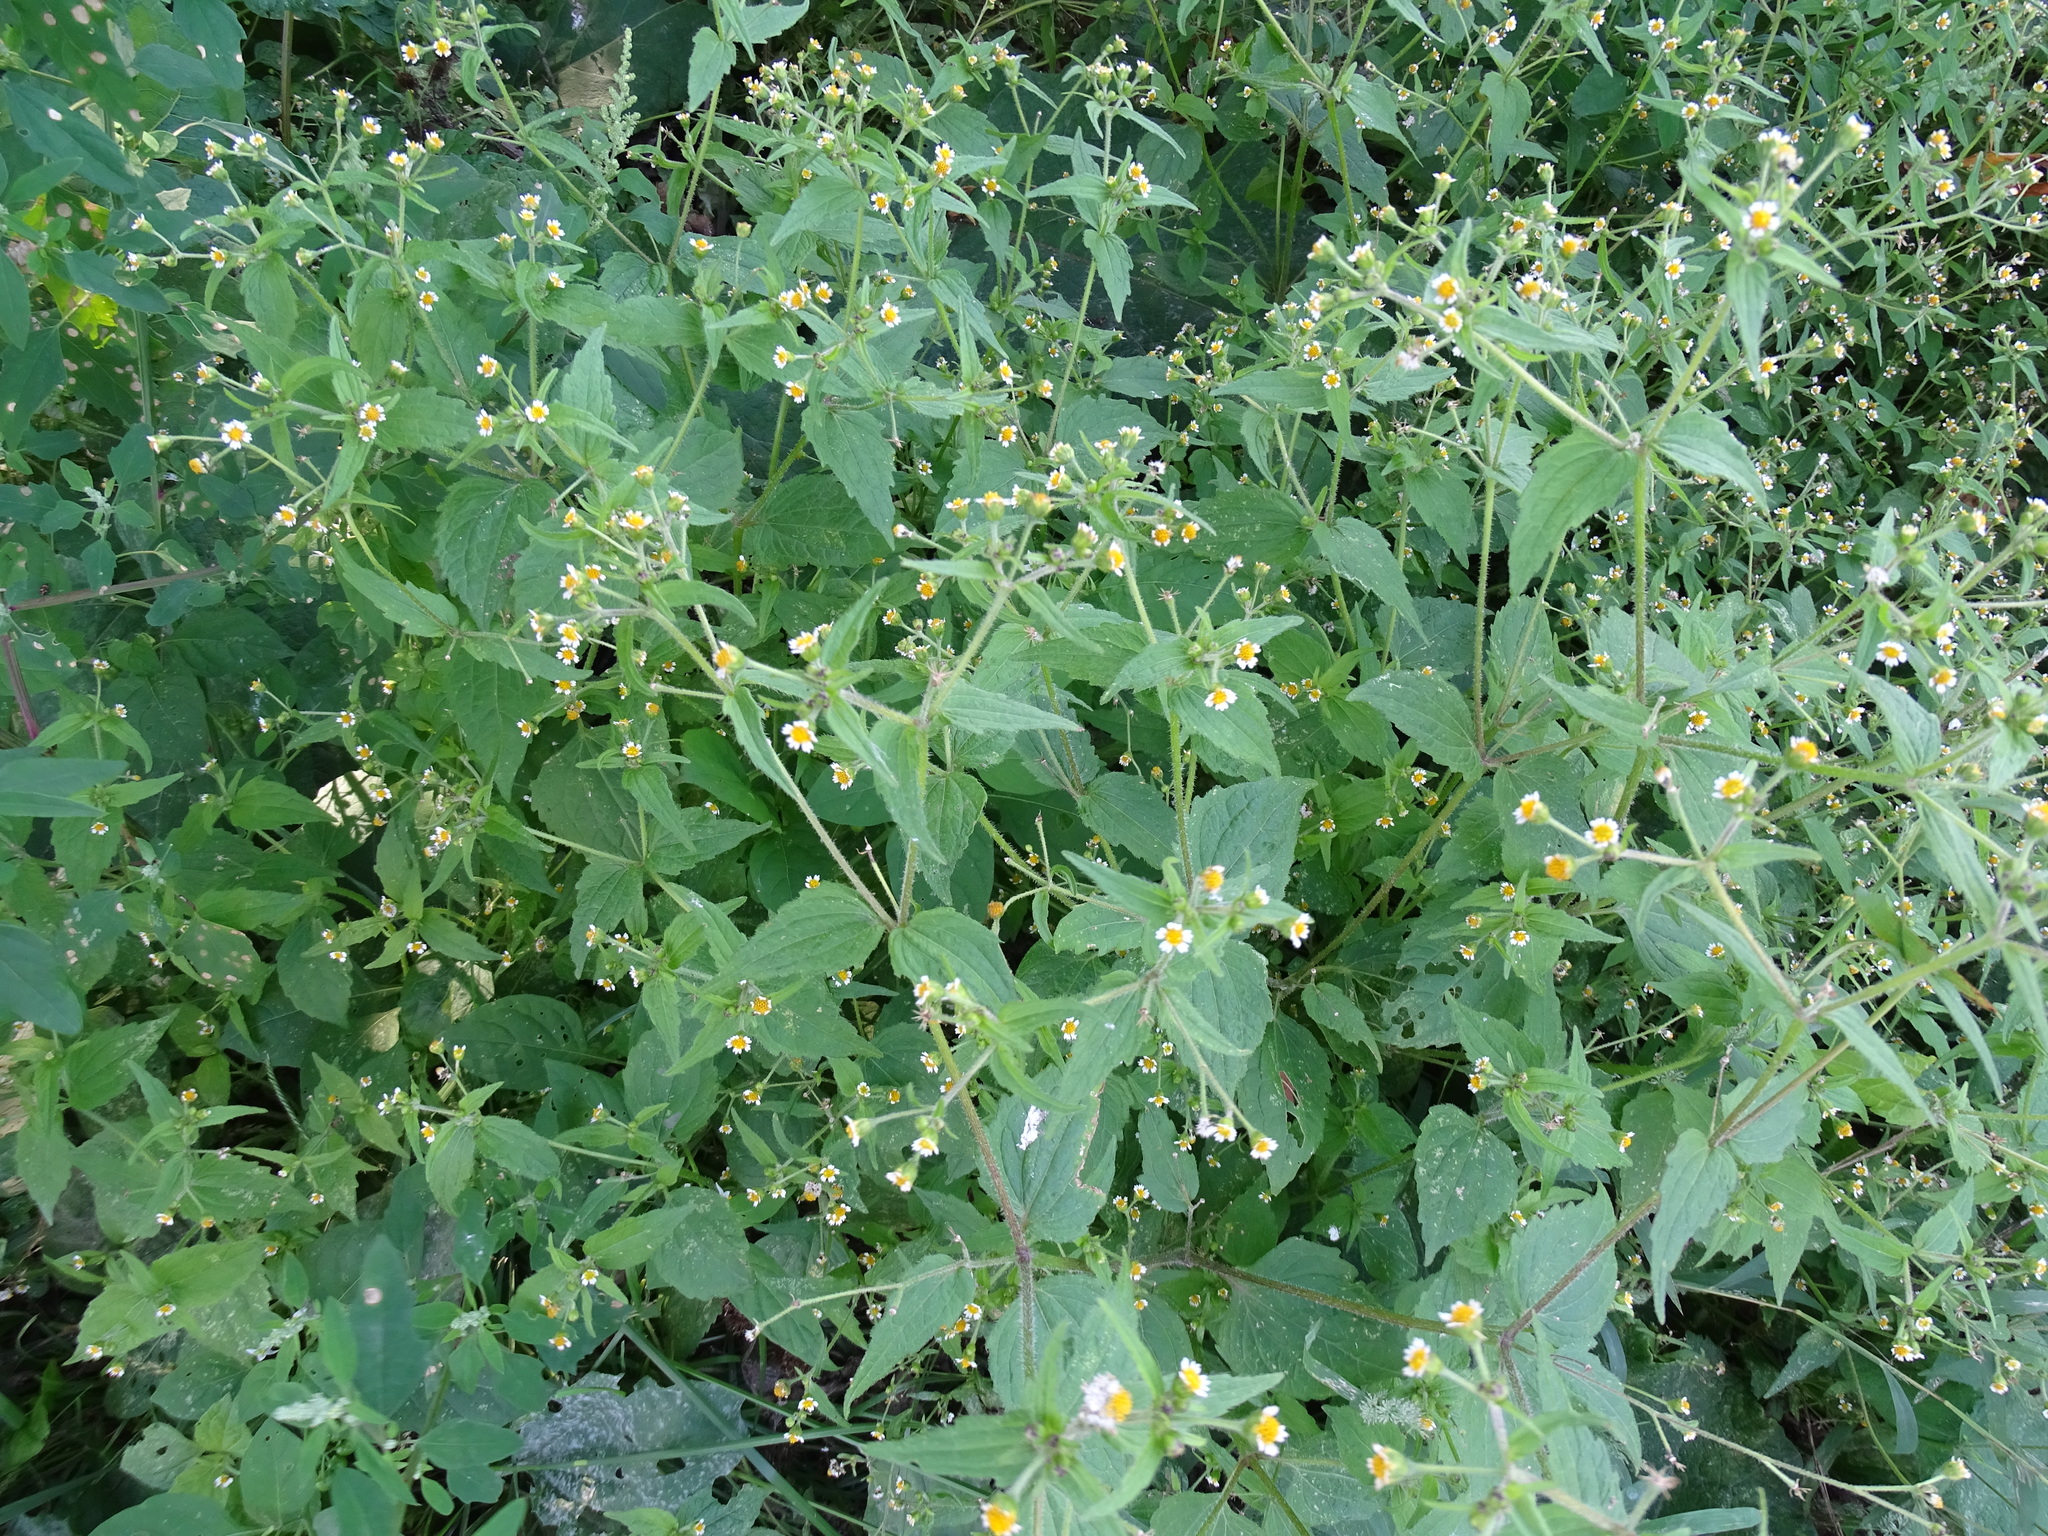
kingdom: Plantae
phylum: Tracheophyta
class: Magnoliopsida
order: Asterales
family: Asteraceae
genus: Galinsoga
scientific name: Galinsoga quadriradiata
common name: Shaggy soldier
